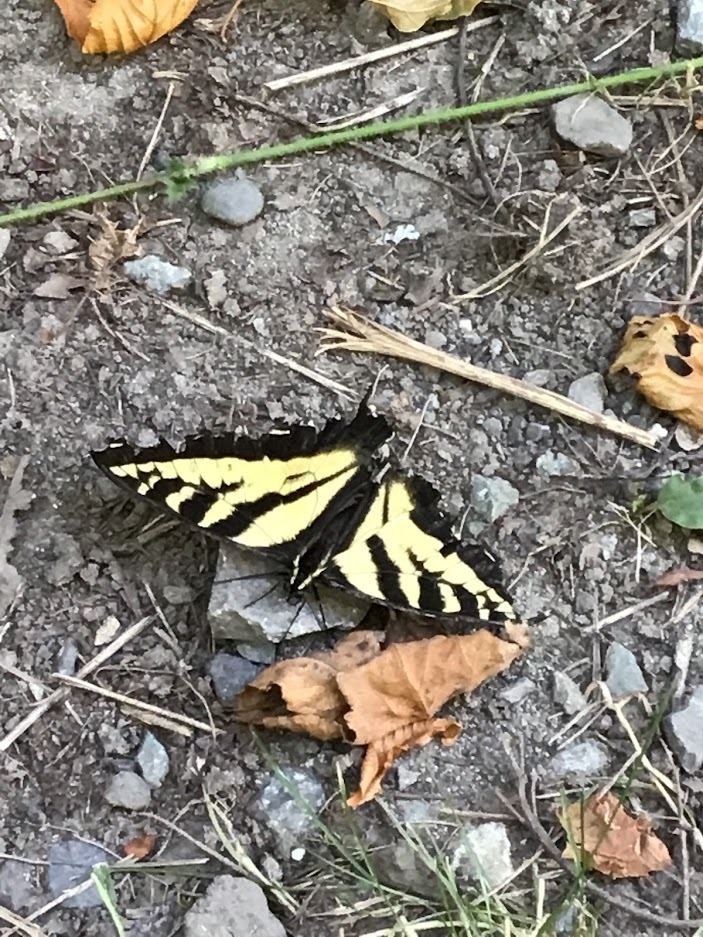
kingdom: Animalia
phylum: Arthropoda
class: Insecta
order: Lepidoptera
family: Papilionidae
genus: Papilio
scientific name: Papilio rutulus
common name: Western tiger swallowtail
